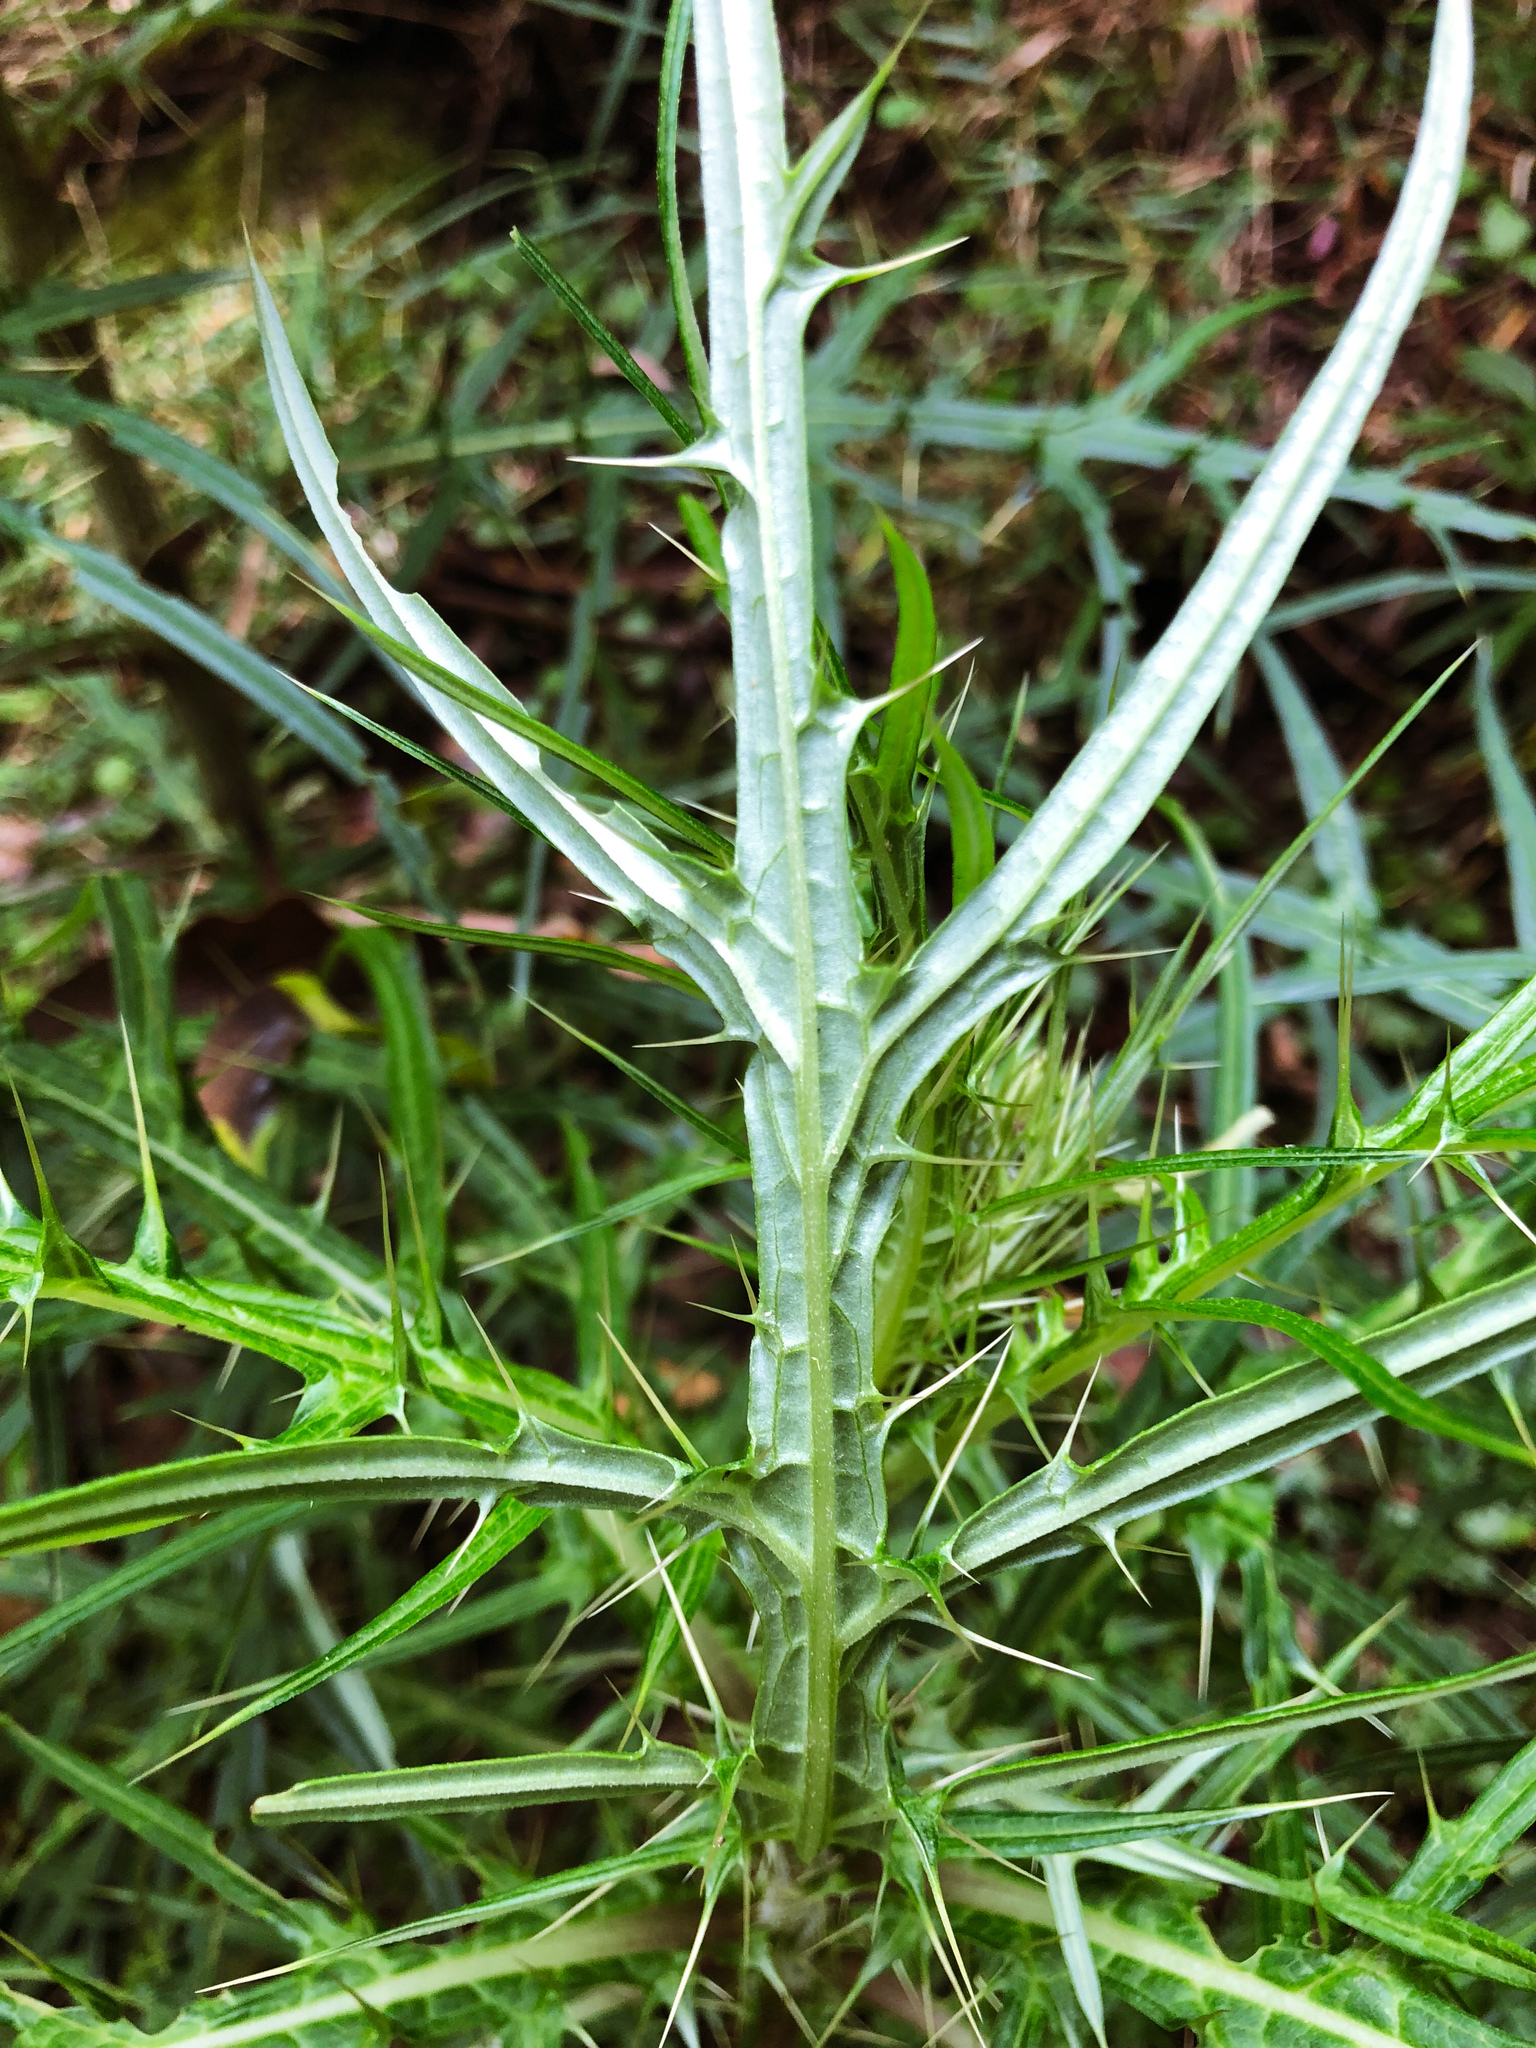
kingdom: Plantae
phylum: Tracheophyta
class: Magnoliopsida
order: Asterales
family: Asteraceae
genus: Cirsium
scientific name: Cirsium tatakaense
